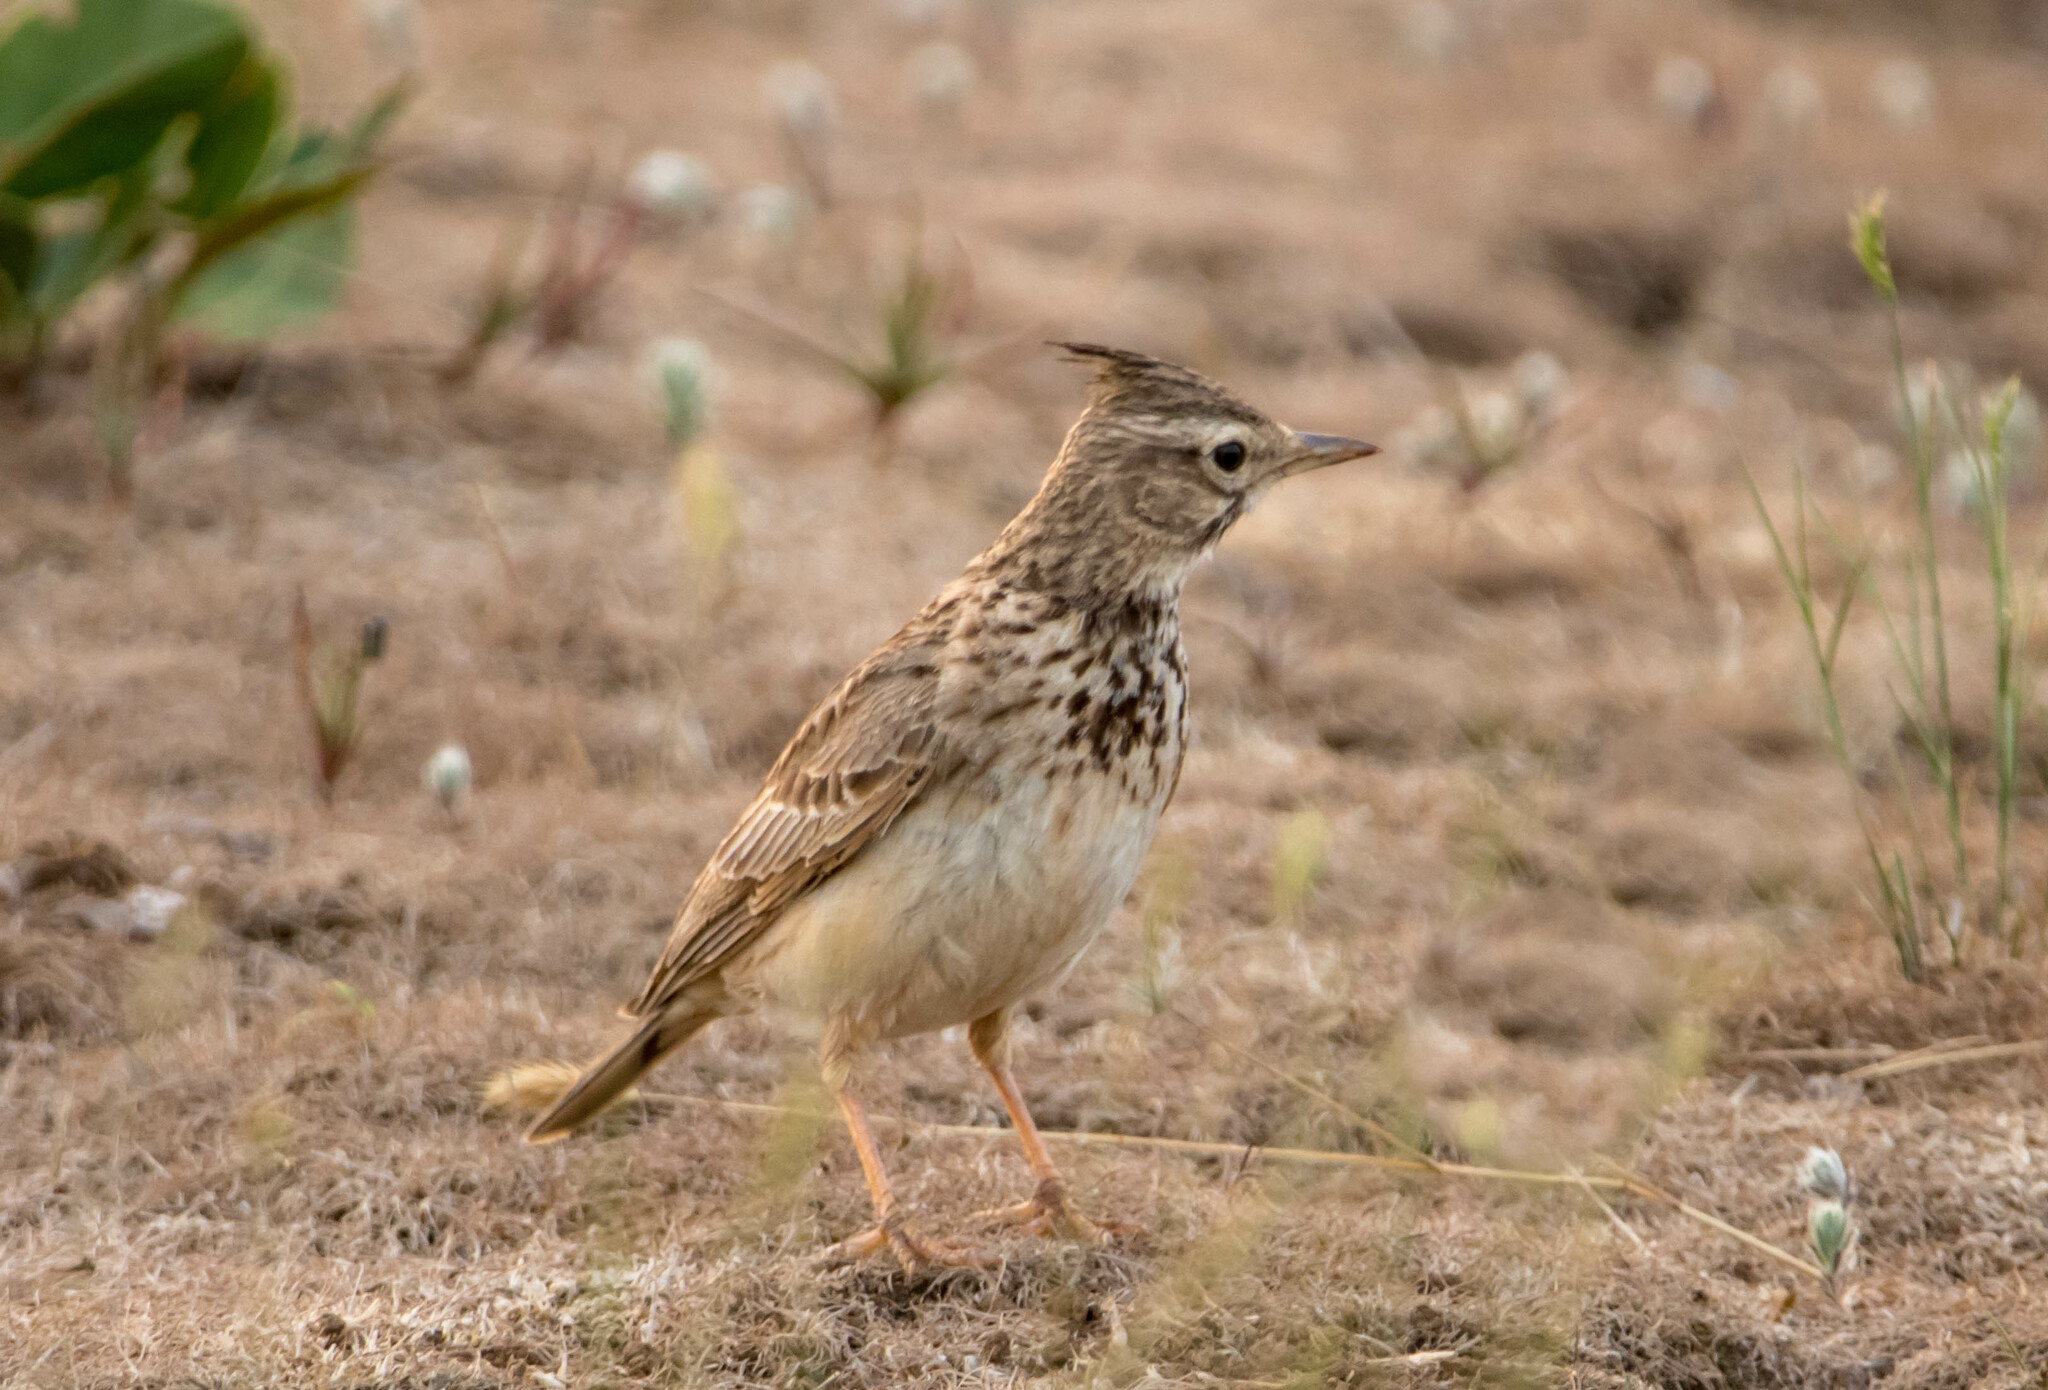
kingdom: Animalia
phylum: Chordata
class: Aves
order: Passeriformes
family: Alaudidae
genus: Galerida
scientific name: Galerida cristata
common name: Crested lark
